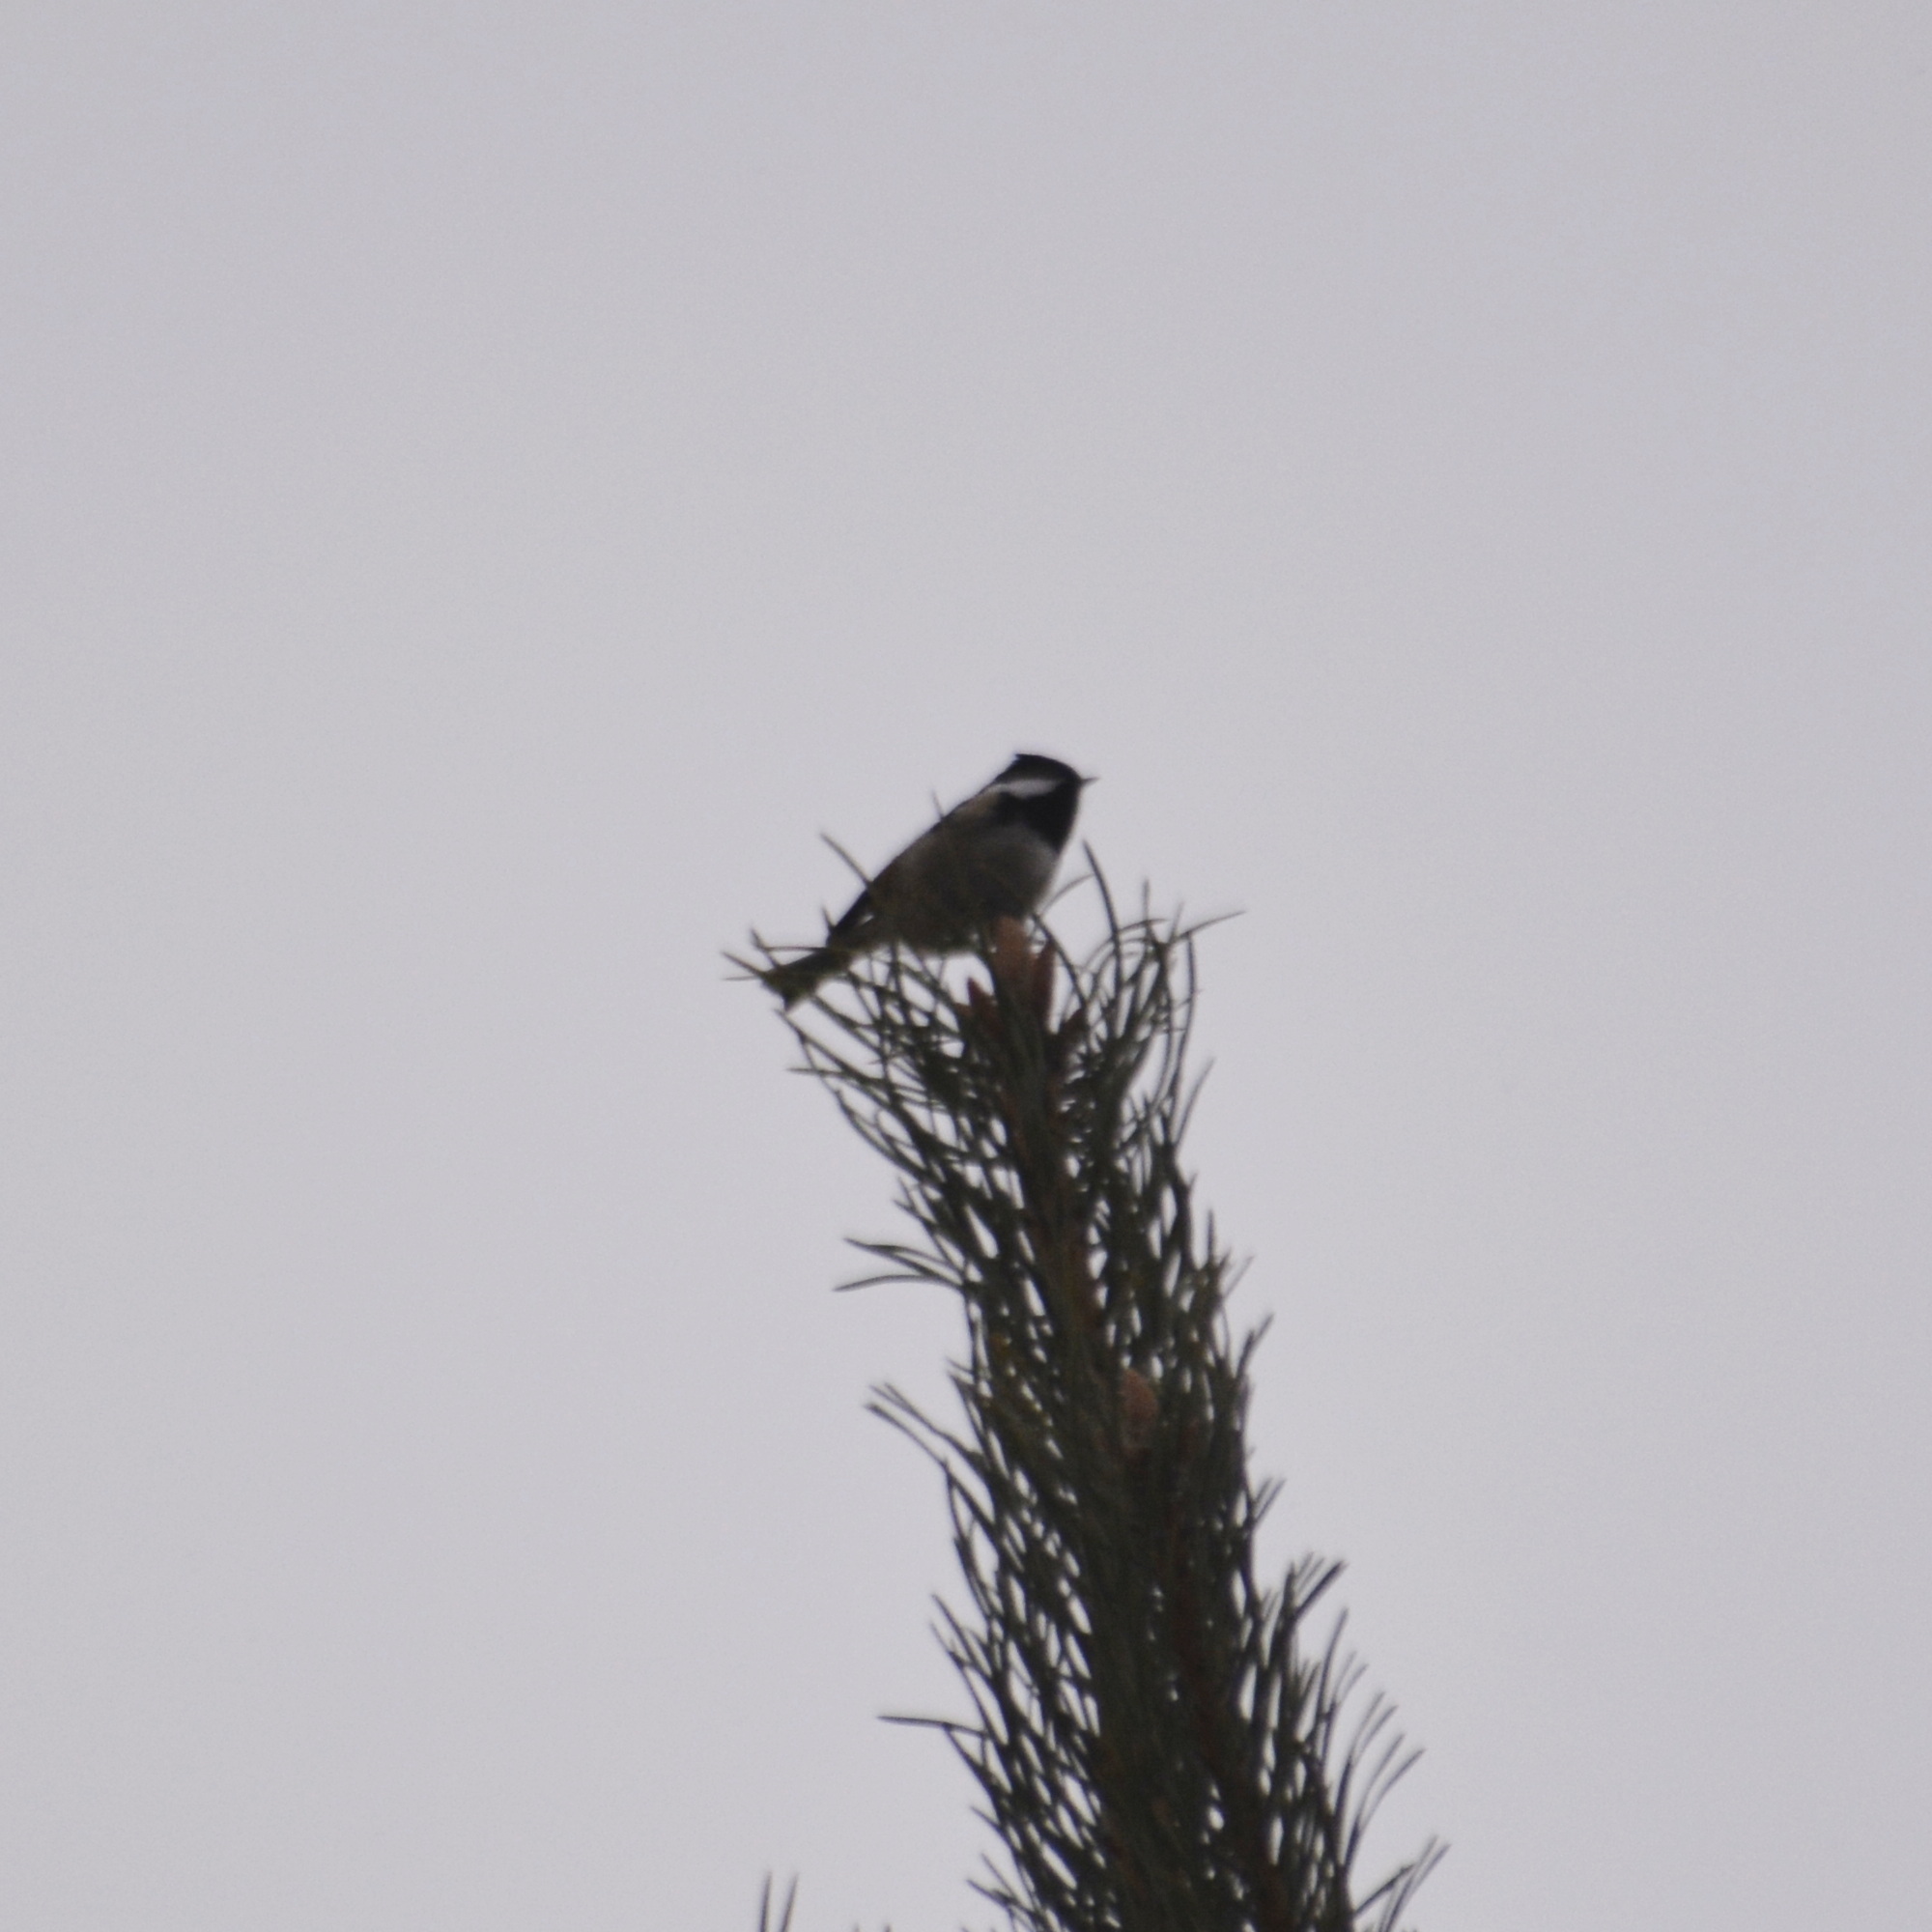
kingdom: Animalia
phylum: Chordata
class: Aves
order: Passeriformes
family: Paridae
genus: Periparus
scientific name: Periparus ater
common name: Coal tit
